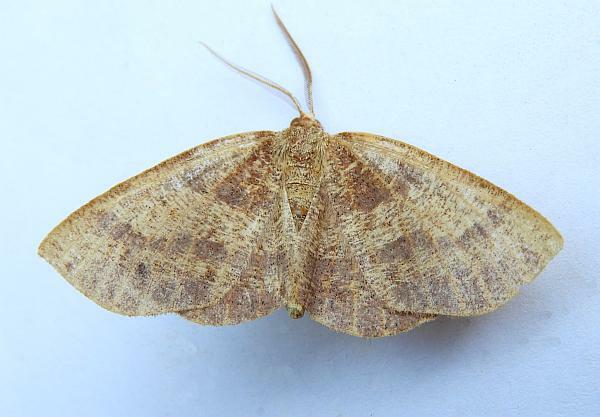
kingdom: Animalia
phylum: Arthropoda
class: Insecta
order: Lepidoptera
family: Geometridae
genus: Metarranthis
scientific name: Metarranthis angularia
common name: Angled metarranthis moth
